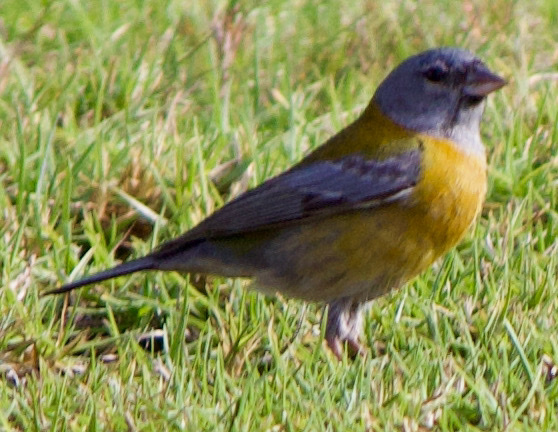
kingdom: Animalia
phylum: Chordata
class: Aves
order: Passeriformes
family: Thraupidae
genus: Phrygilus
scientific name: Phrygilus gayi
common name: Grey-hooded sierra finch
